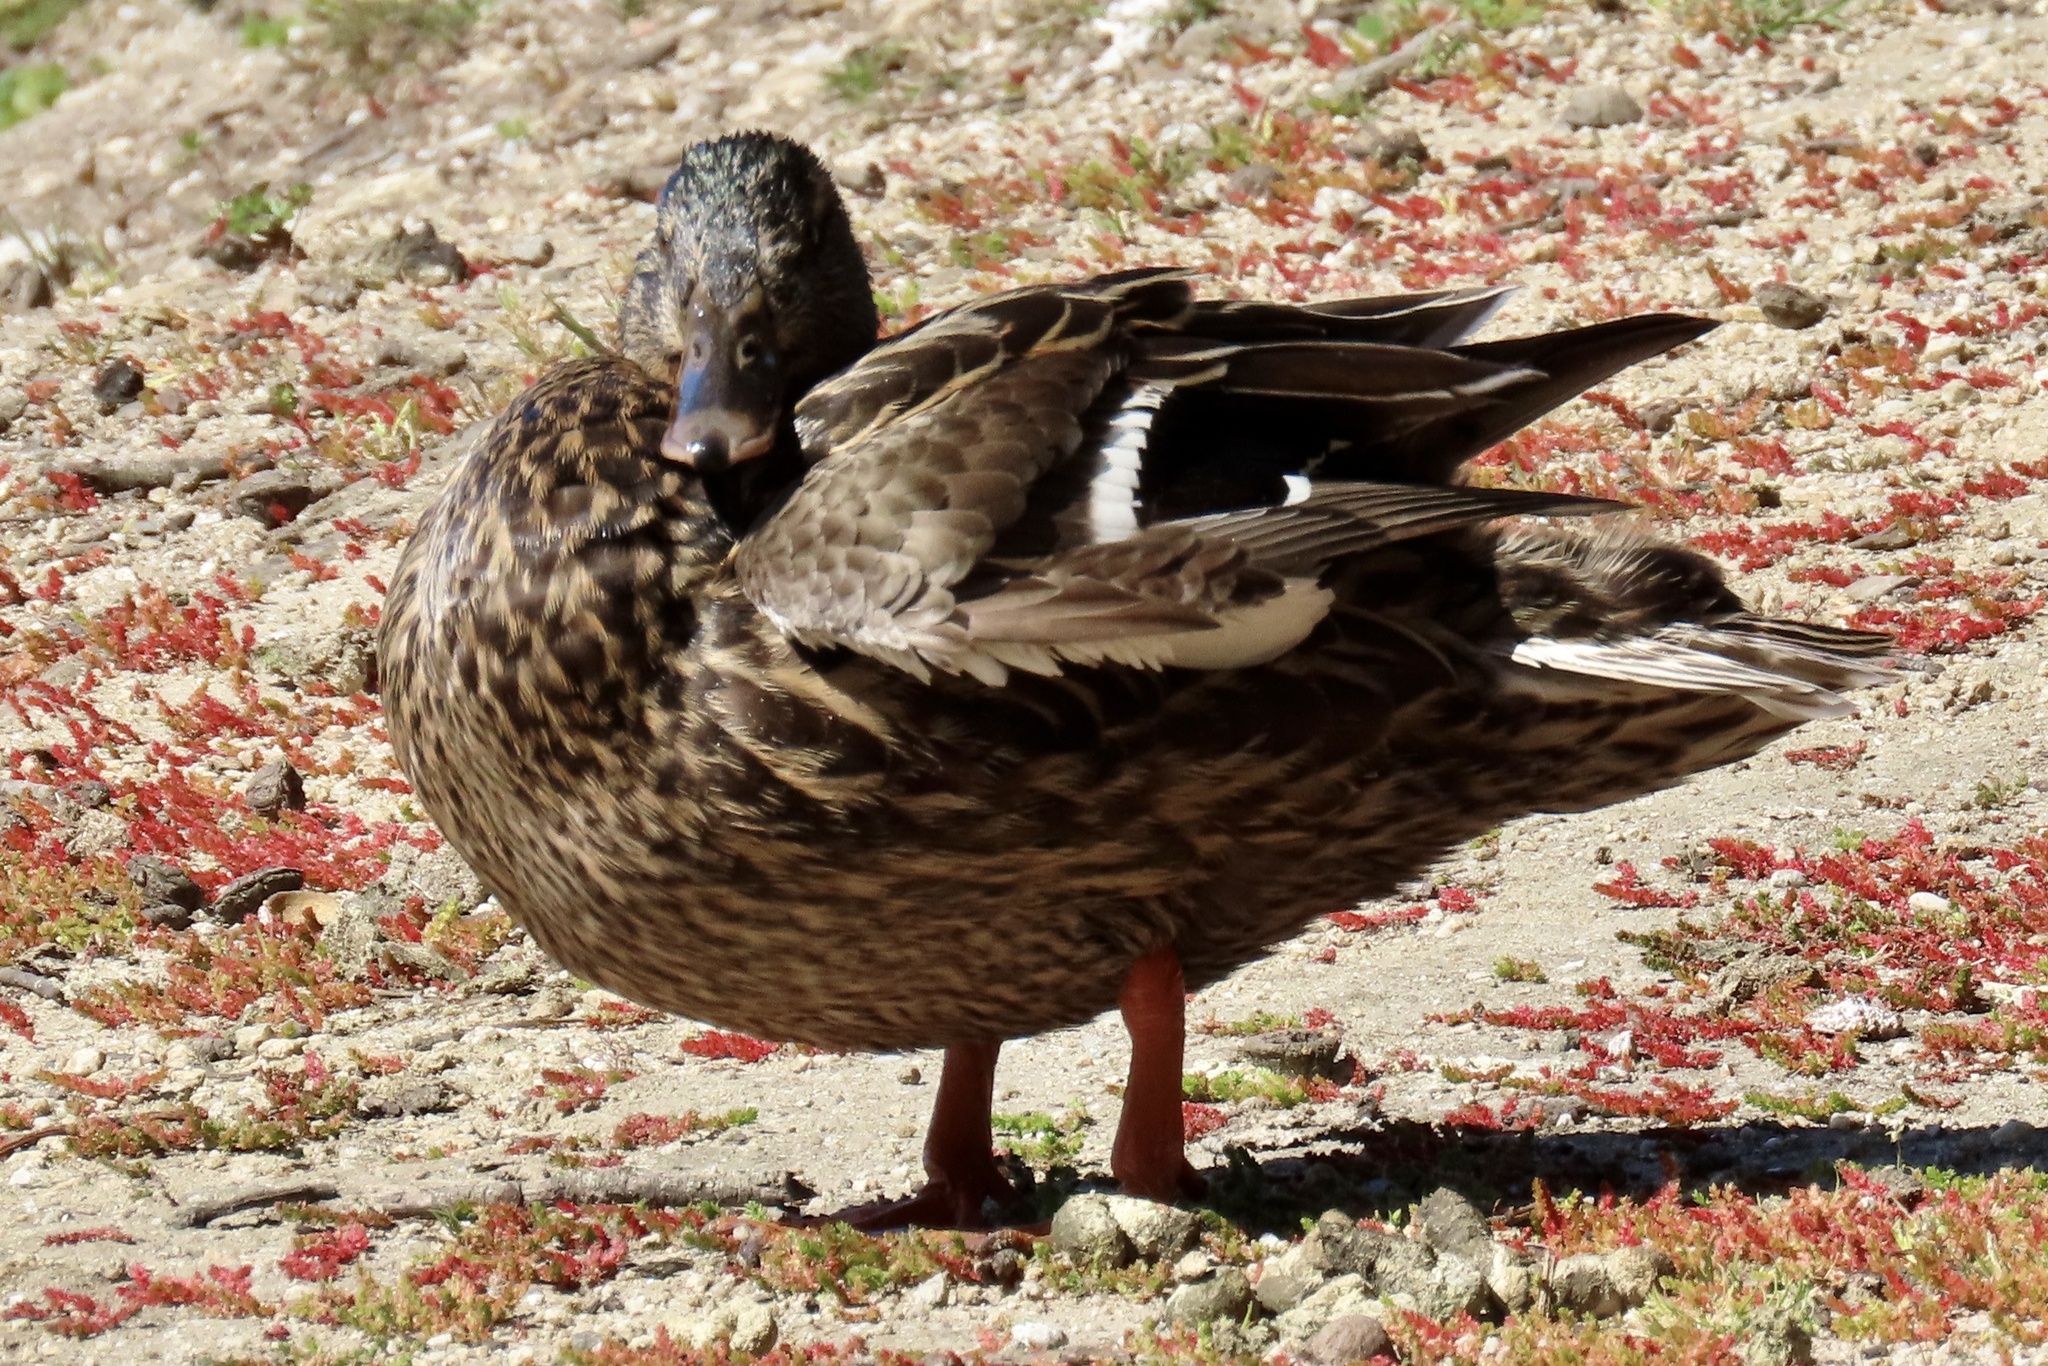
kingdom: Animalia
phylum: Chordata
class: Aves
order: Anseriformes
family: Anatidae
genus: Anas
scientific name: Anas platyrhynchos
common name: Mallard
